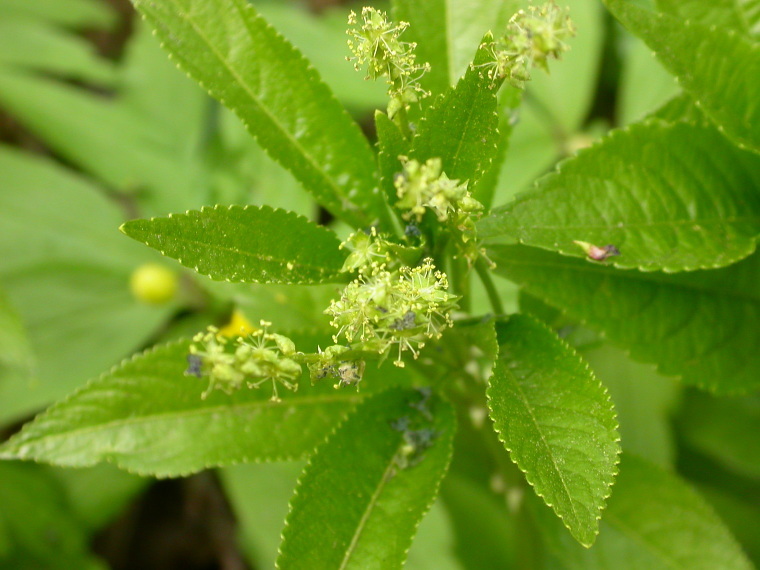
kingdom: Plantae
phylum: Tracheophyta
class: Magnoliopsida
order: Malpighiales
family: Euphorbiaceae
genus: Mercurialis
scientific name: Mercurialis perennis
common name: Dog mercury
